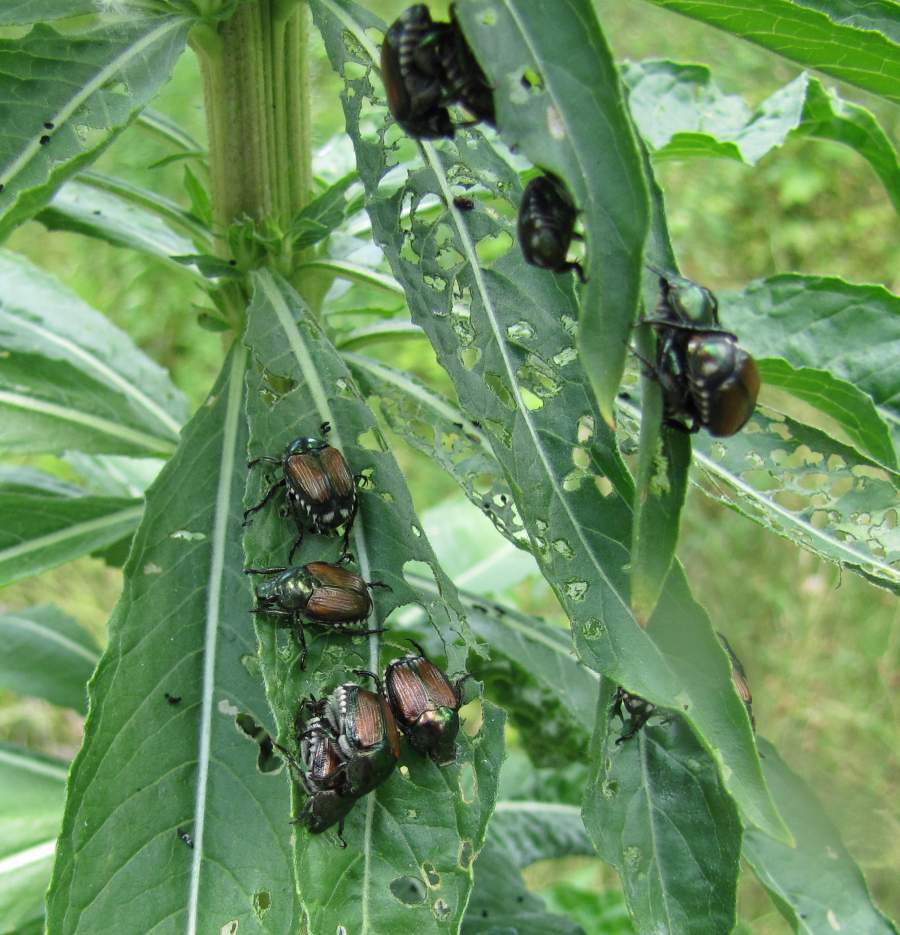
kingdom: Animalia
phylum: Arthropoda
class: Insecta
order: Coleoptera
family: Scarabaeidae
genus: Popillia
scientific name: Popillia japonica
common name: Japanese beetle
